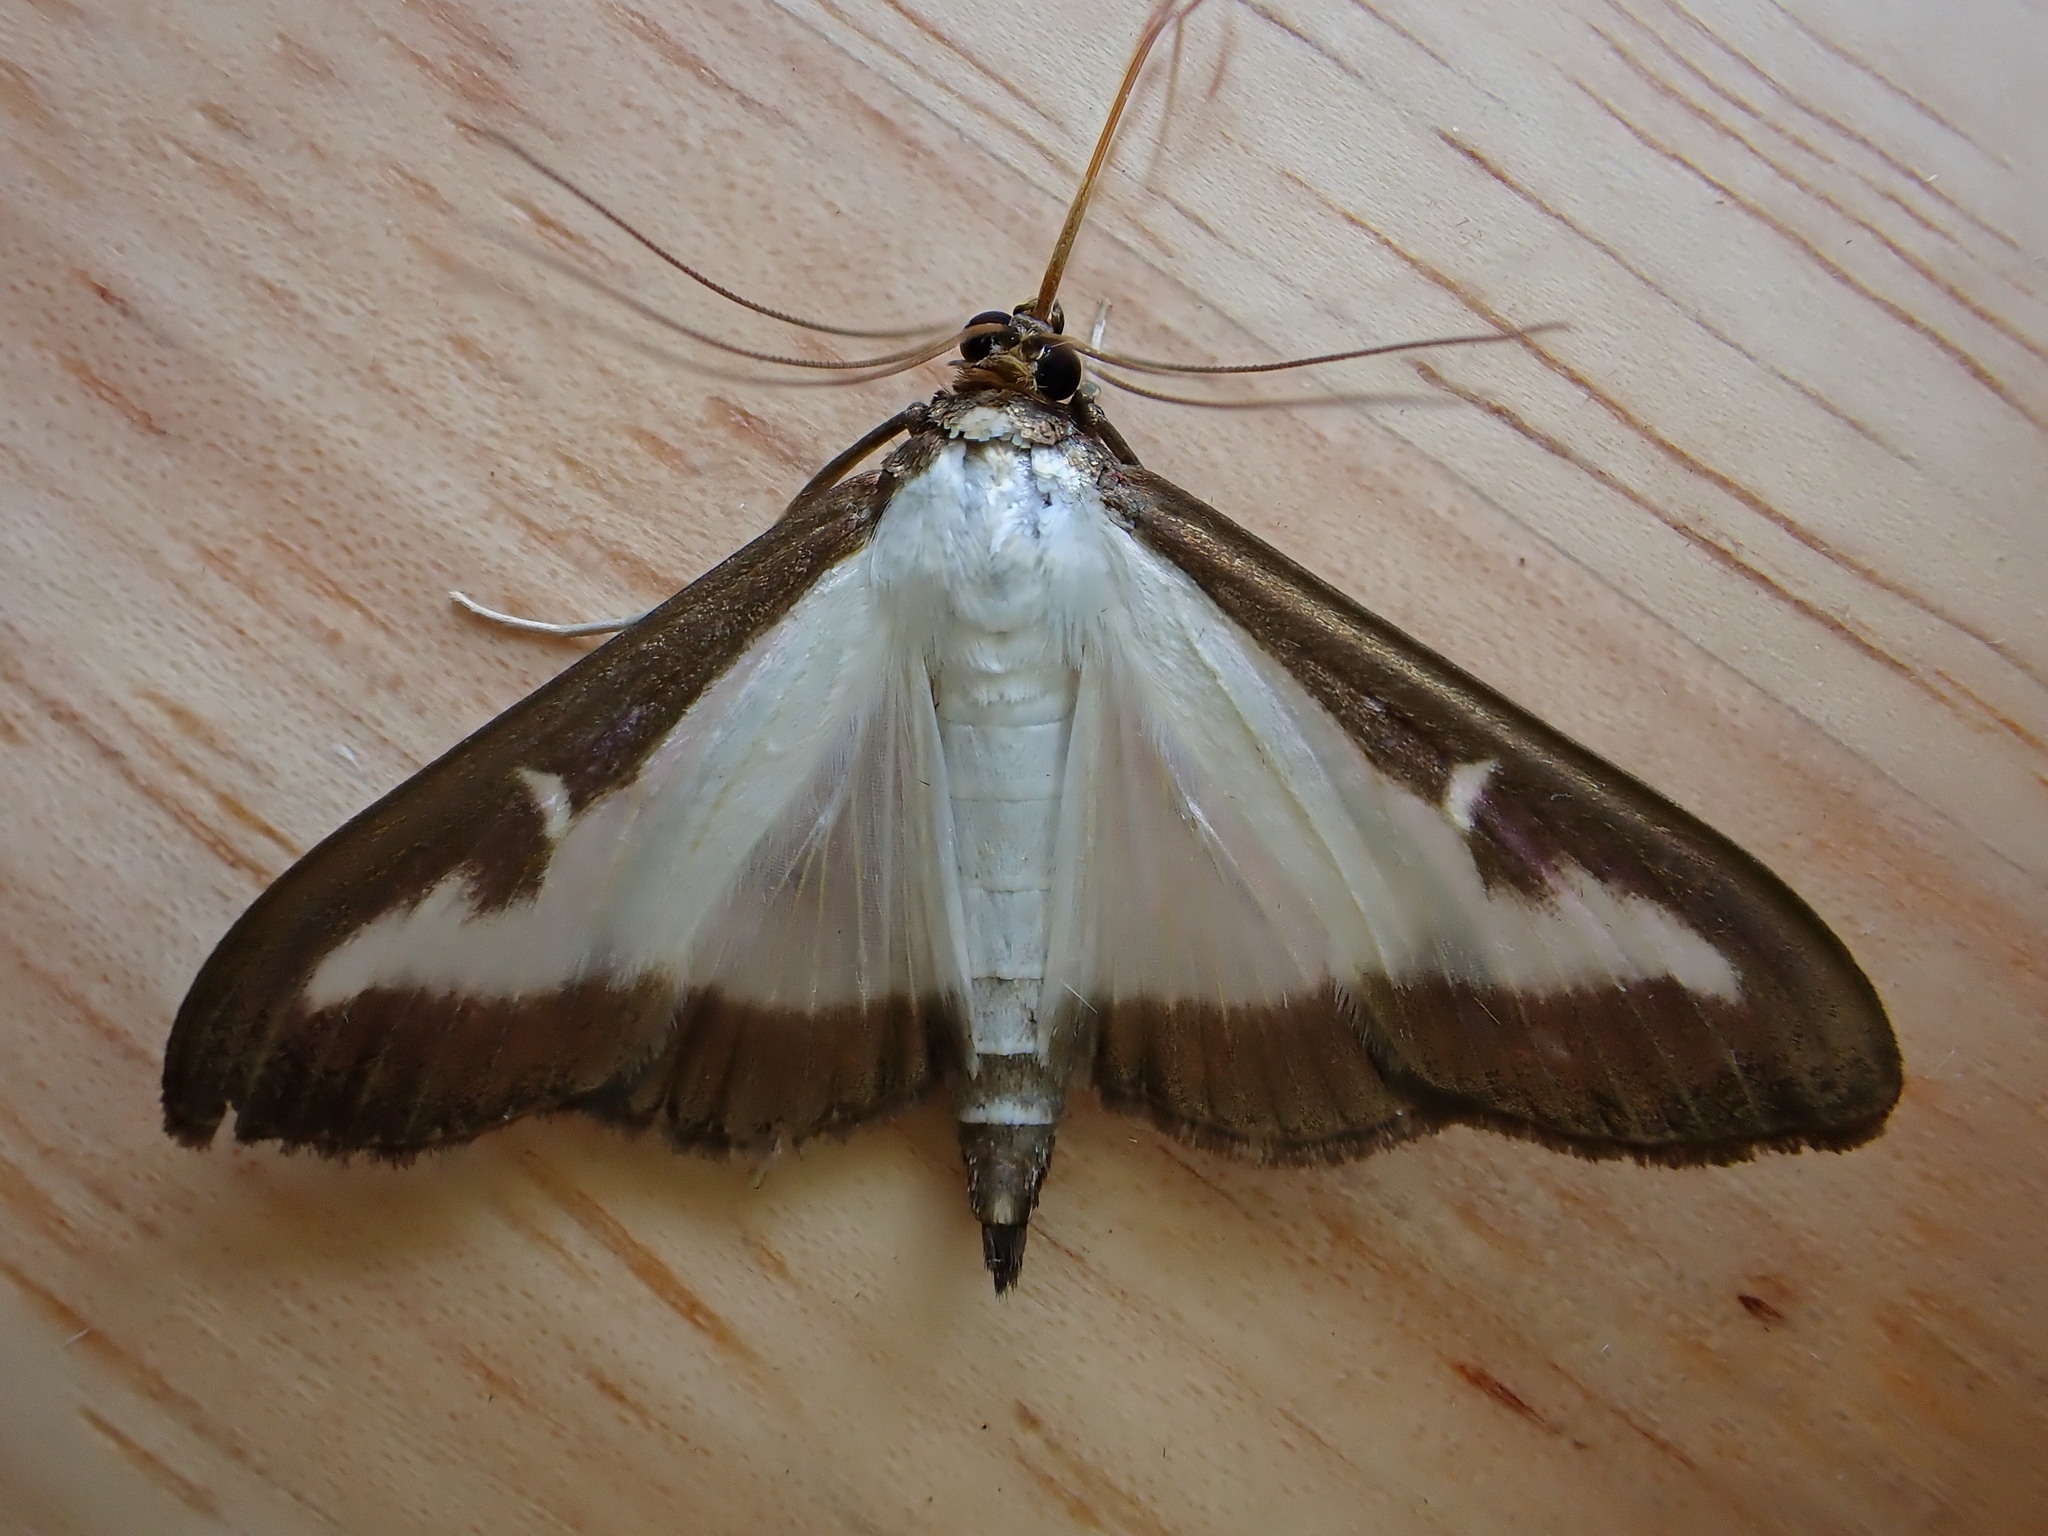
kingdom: Animalia
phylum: Arthropoda
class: Insecta
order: Lepidoptera
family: Crambidae
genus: Cydalima
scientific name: Cydalima perspectalis
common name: Box tree moth
